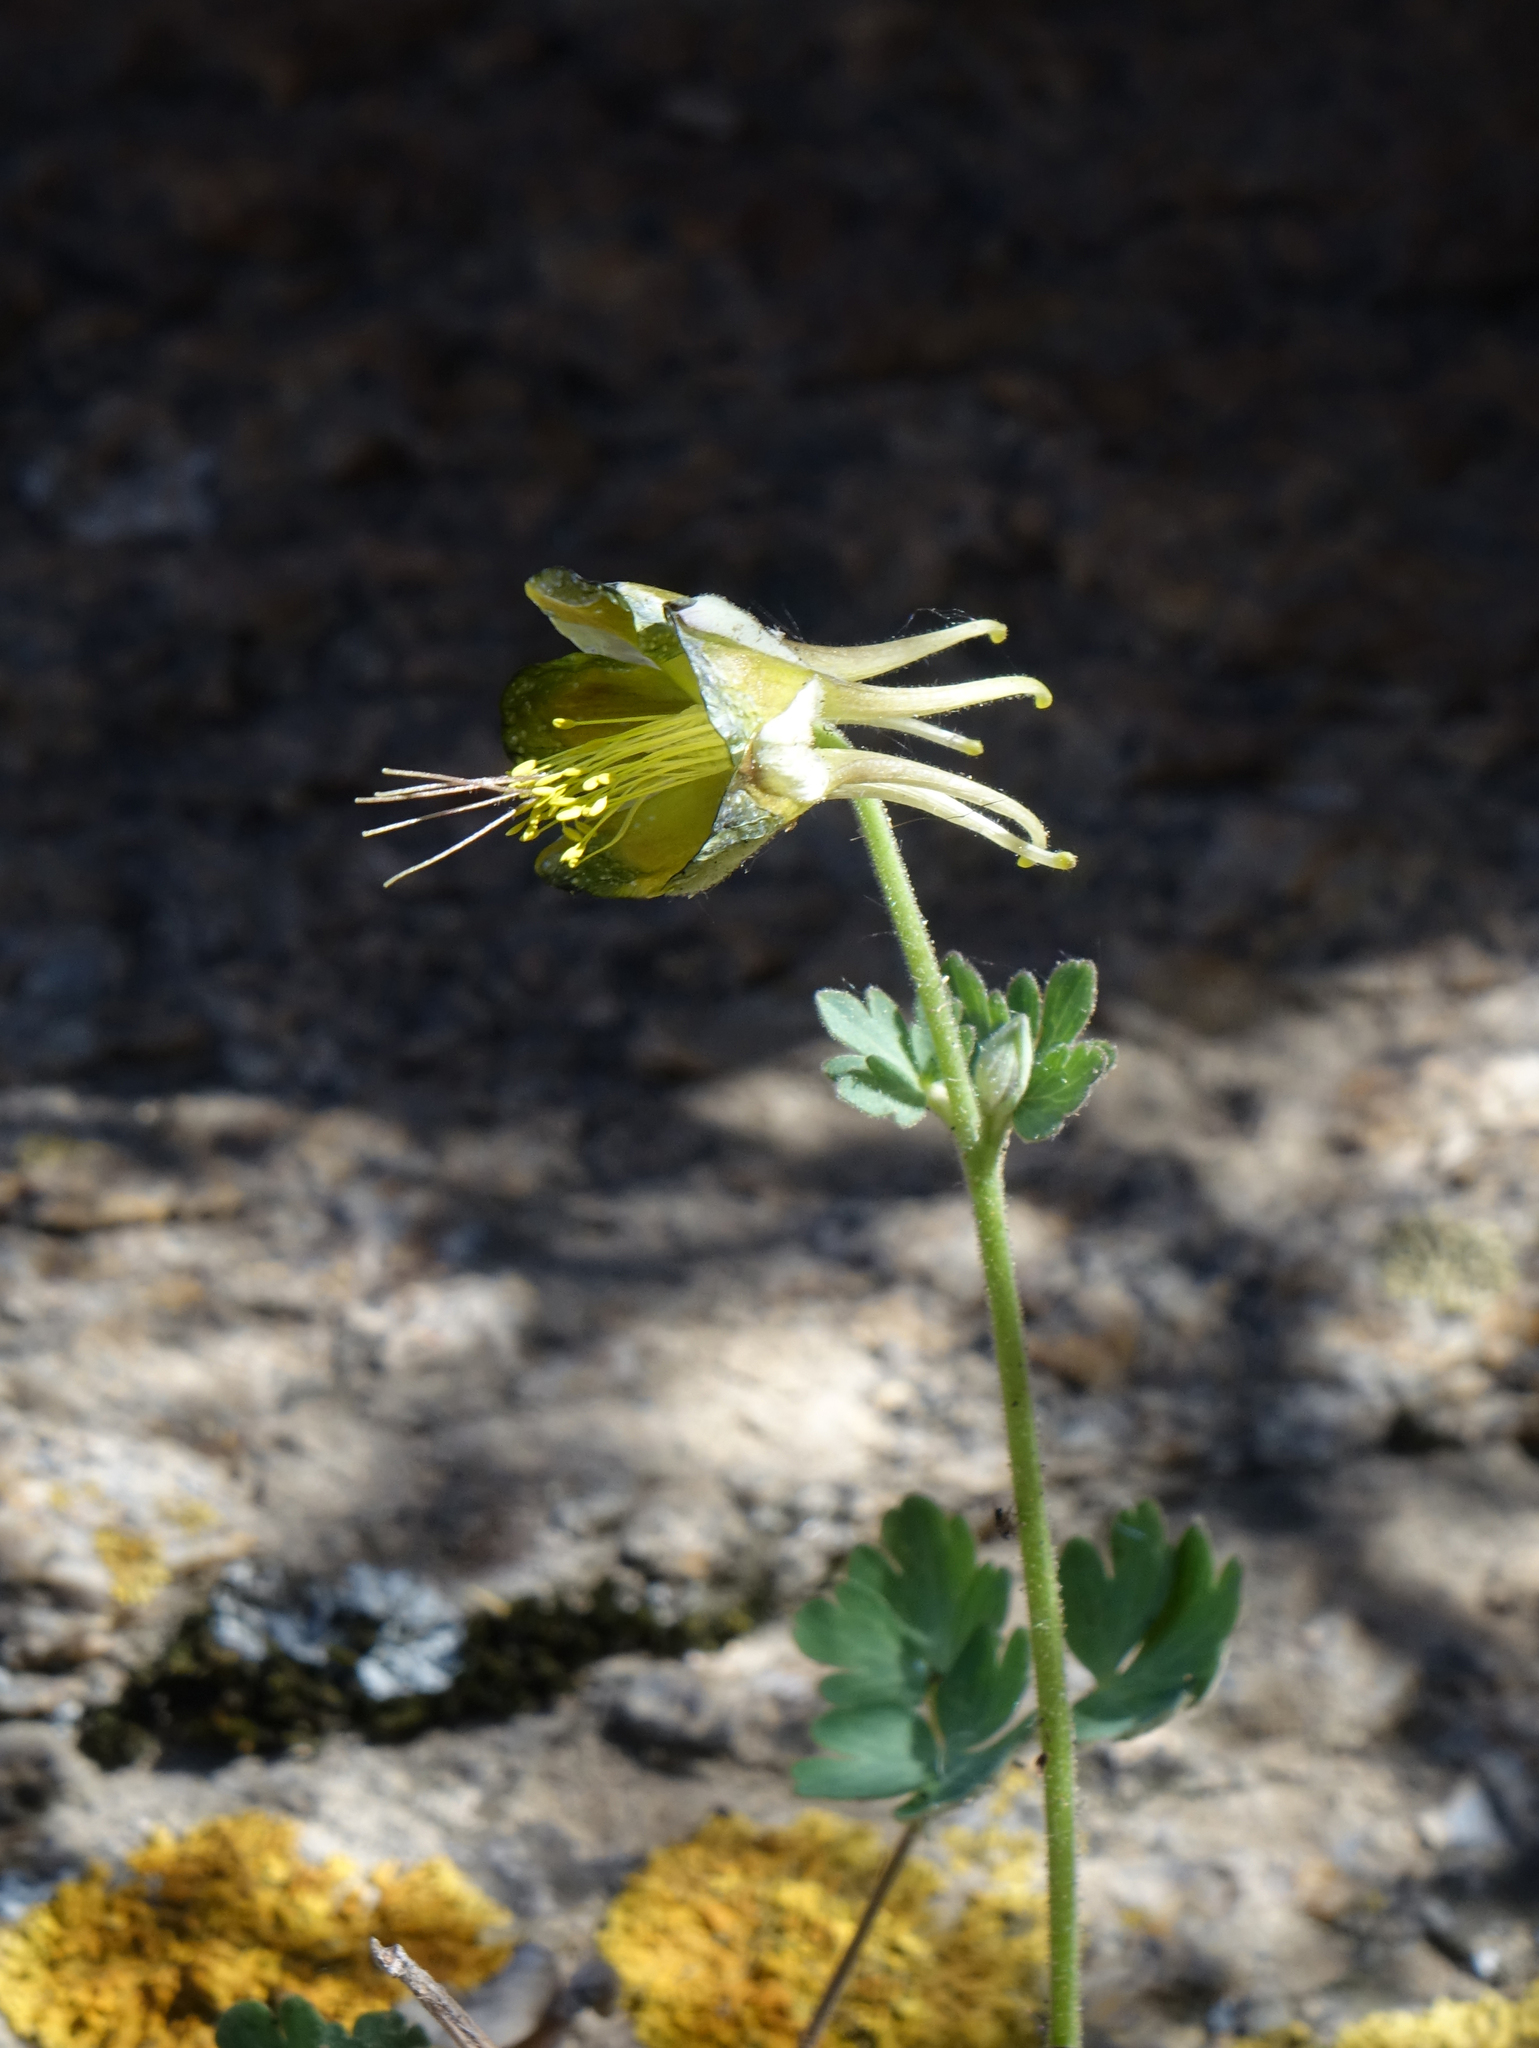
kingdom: Plantae
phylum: Tracheophyta
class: Magnoliopsida
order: Ranunculales
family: Ranunculaceae
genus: Aquilegia
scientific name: Aquilegia viridiflora
